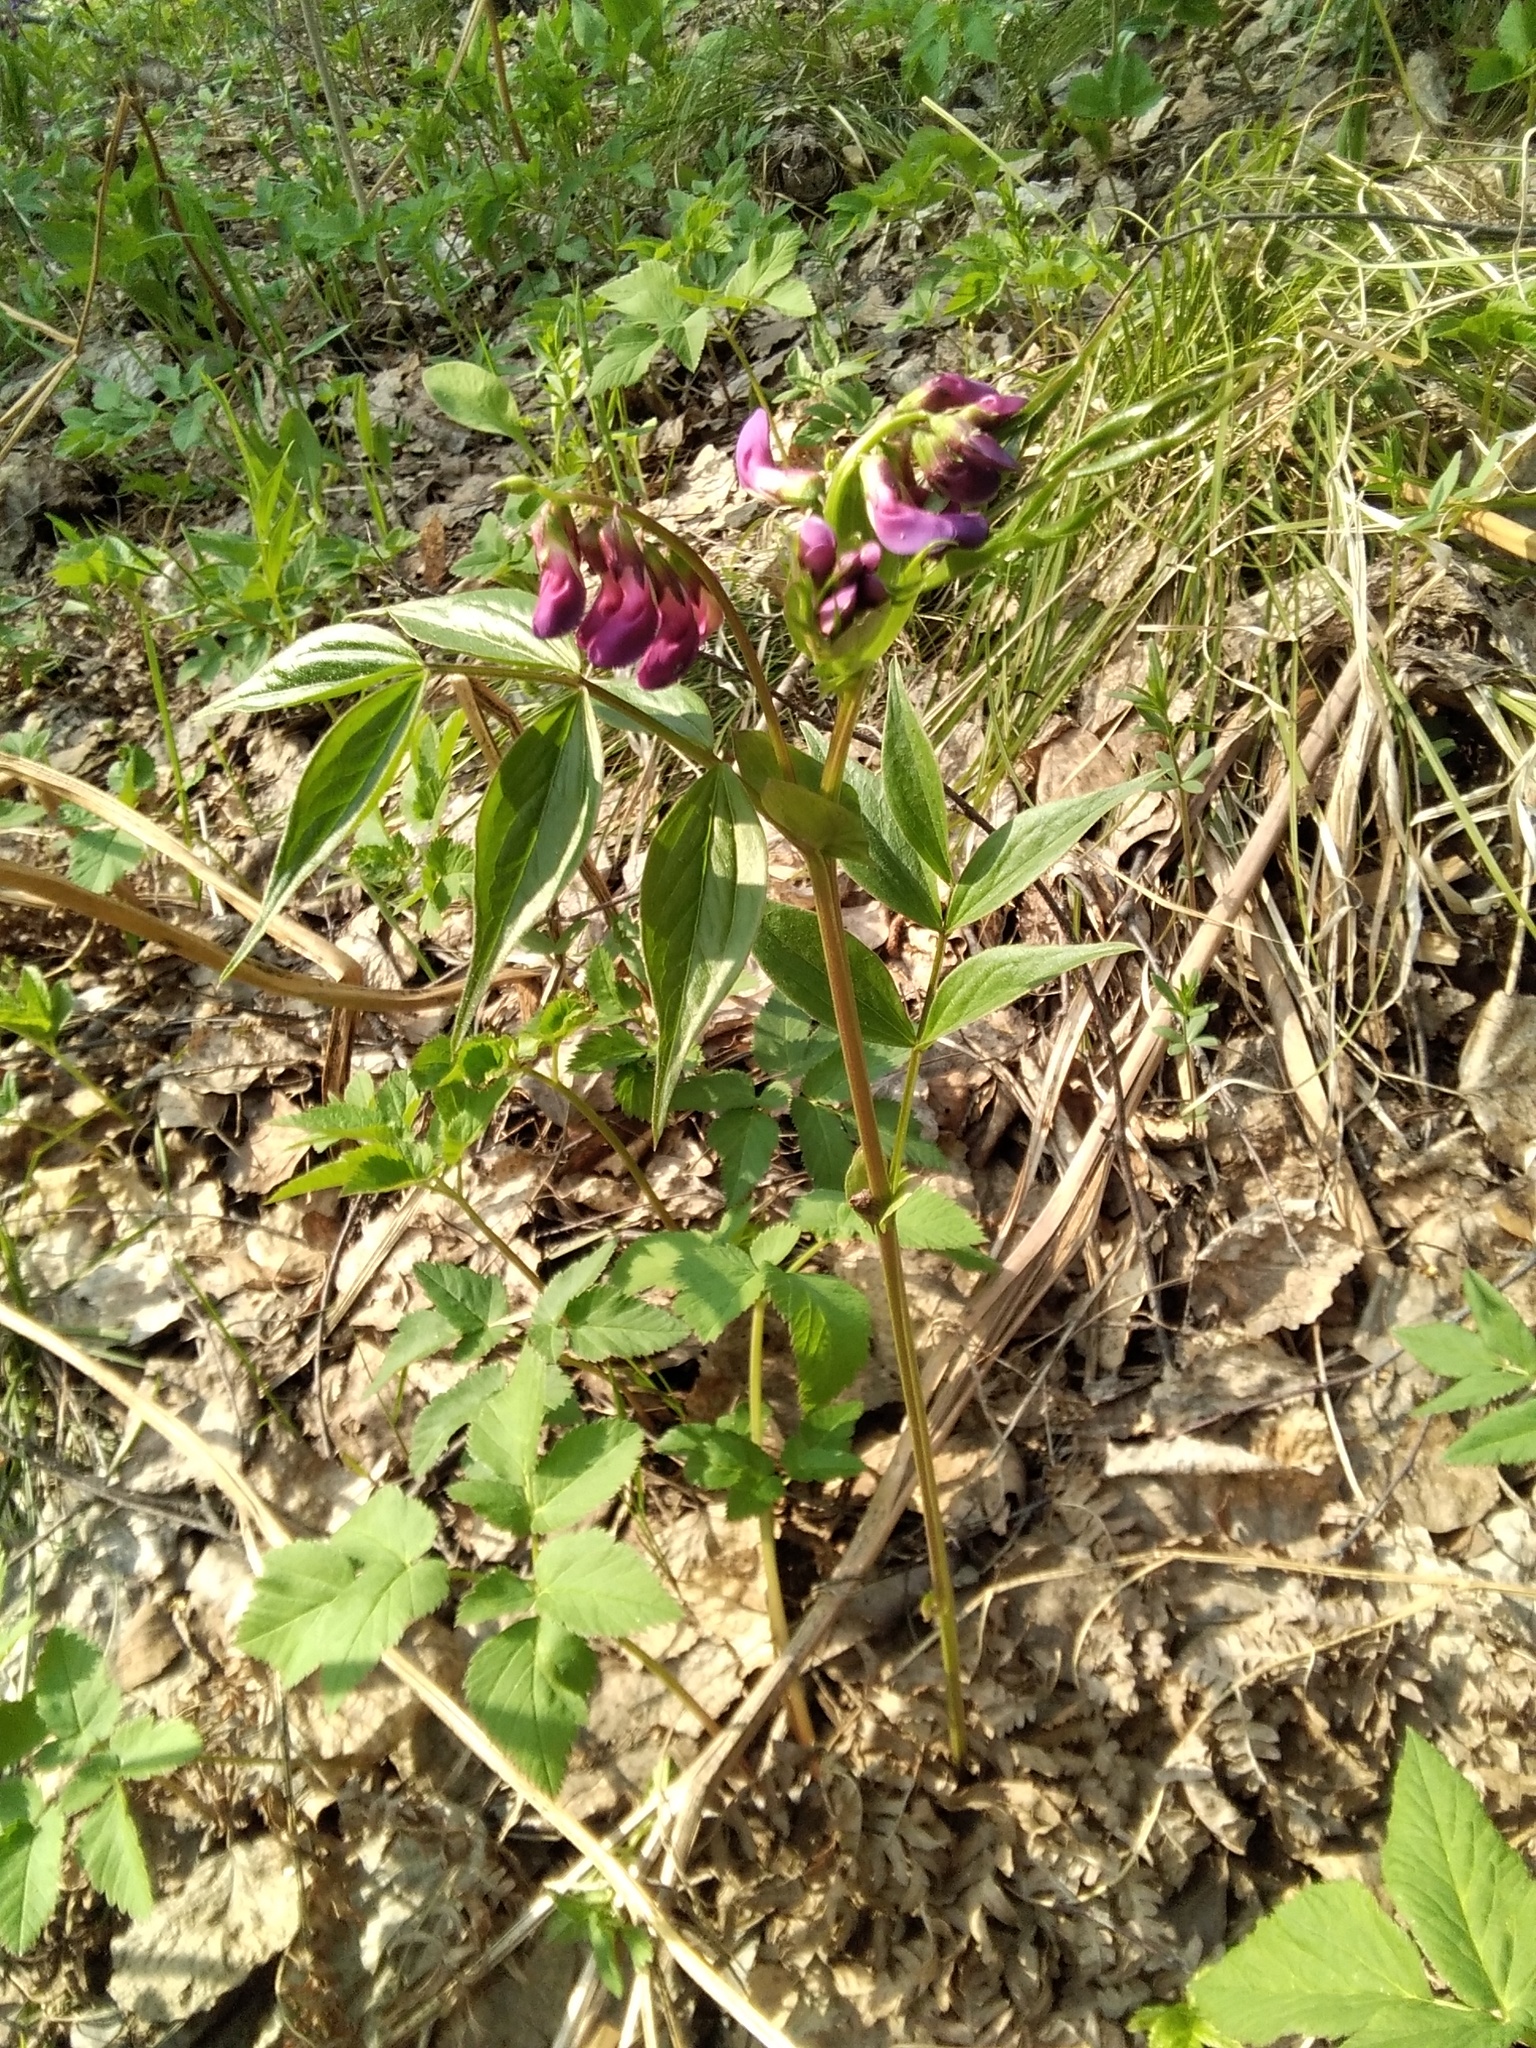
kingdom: Plantae
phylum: Tracheophyta
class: Magnoliopsida
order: Fabales
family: Fabaceae
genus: Lathyrus
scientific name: Lathyrus vernus
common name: Spring pea
